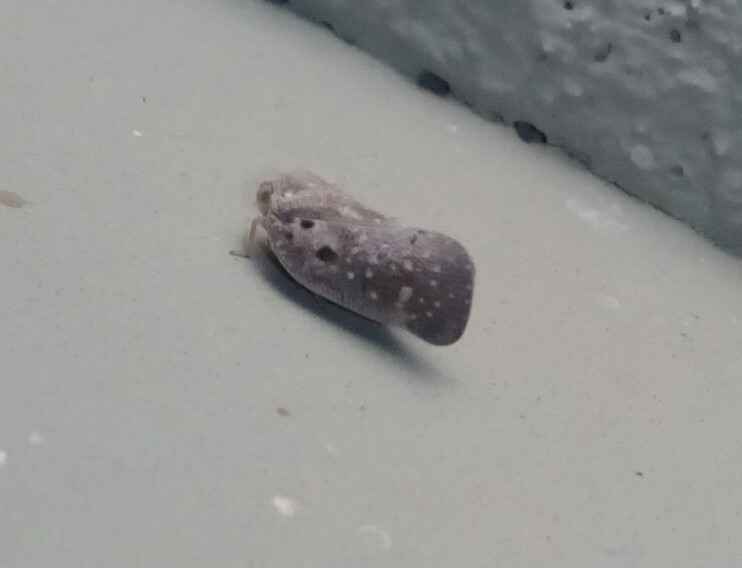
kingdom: Animalia
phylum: Arthropoda
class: Insecta
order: Hemiptera
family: Flatidae
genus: Metcalfa
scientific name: Metcalfa pruinosa
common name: Citrus flatid planthopper
